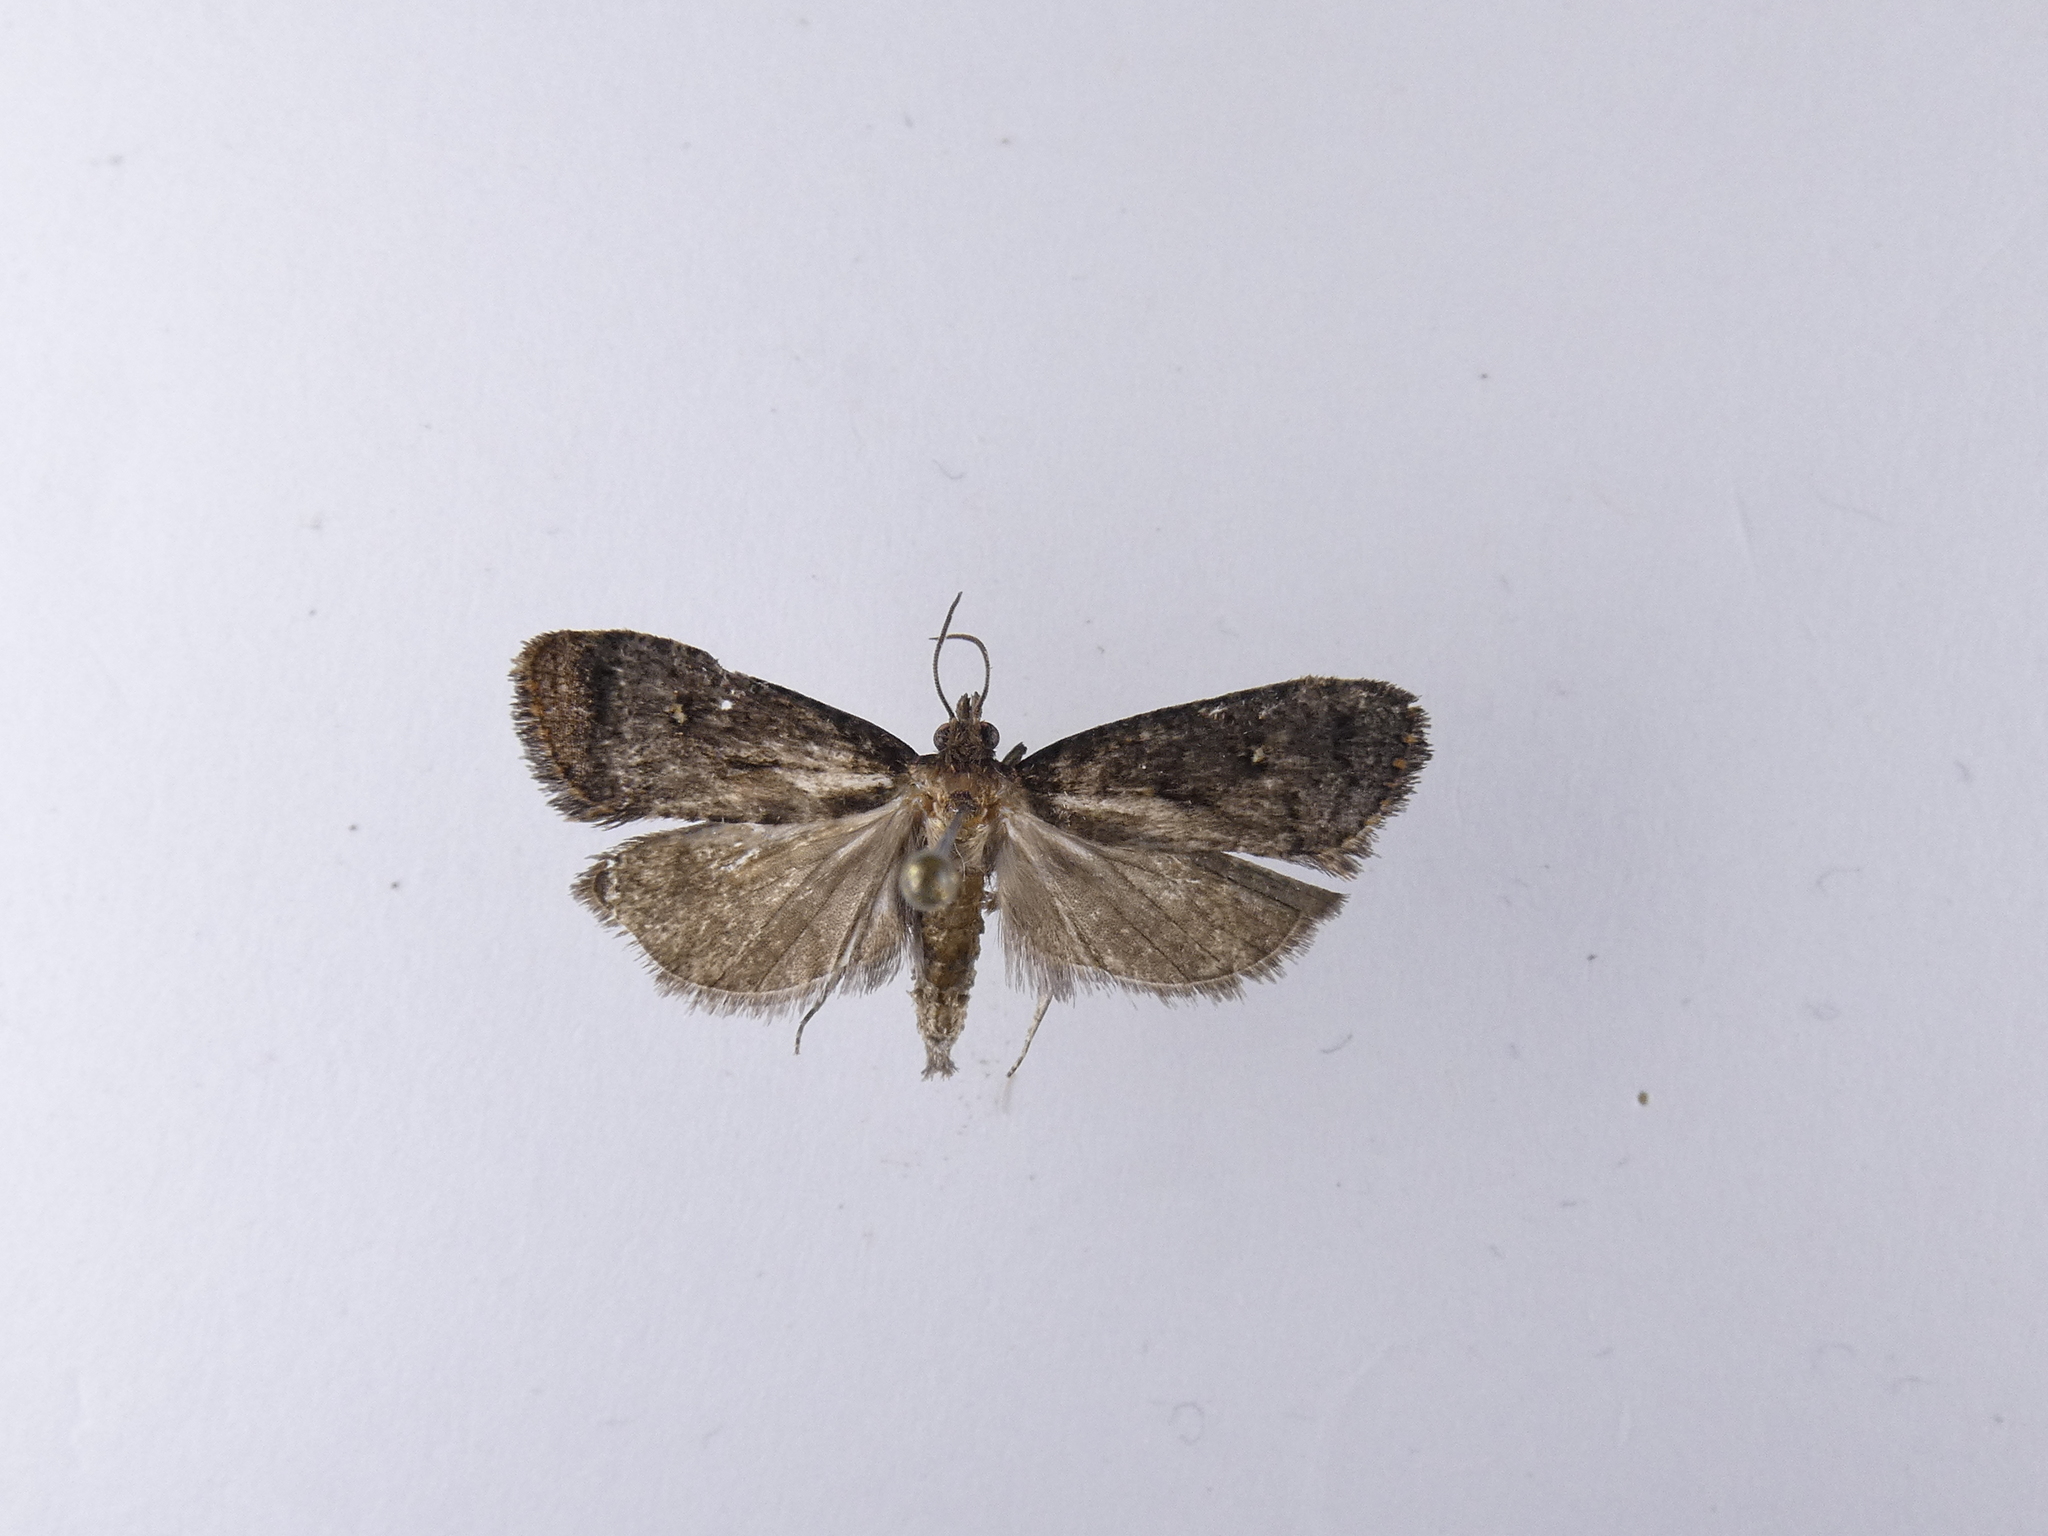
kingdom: Animalia
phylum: Arthropoda
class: Insecta
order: Lepidoptera
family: Tortricidae
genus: Cryptaspasma
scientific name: Cryptaspasma querula
